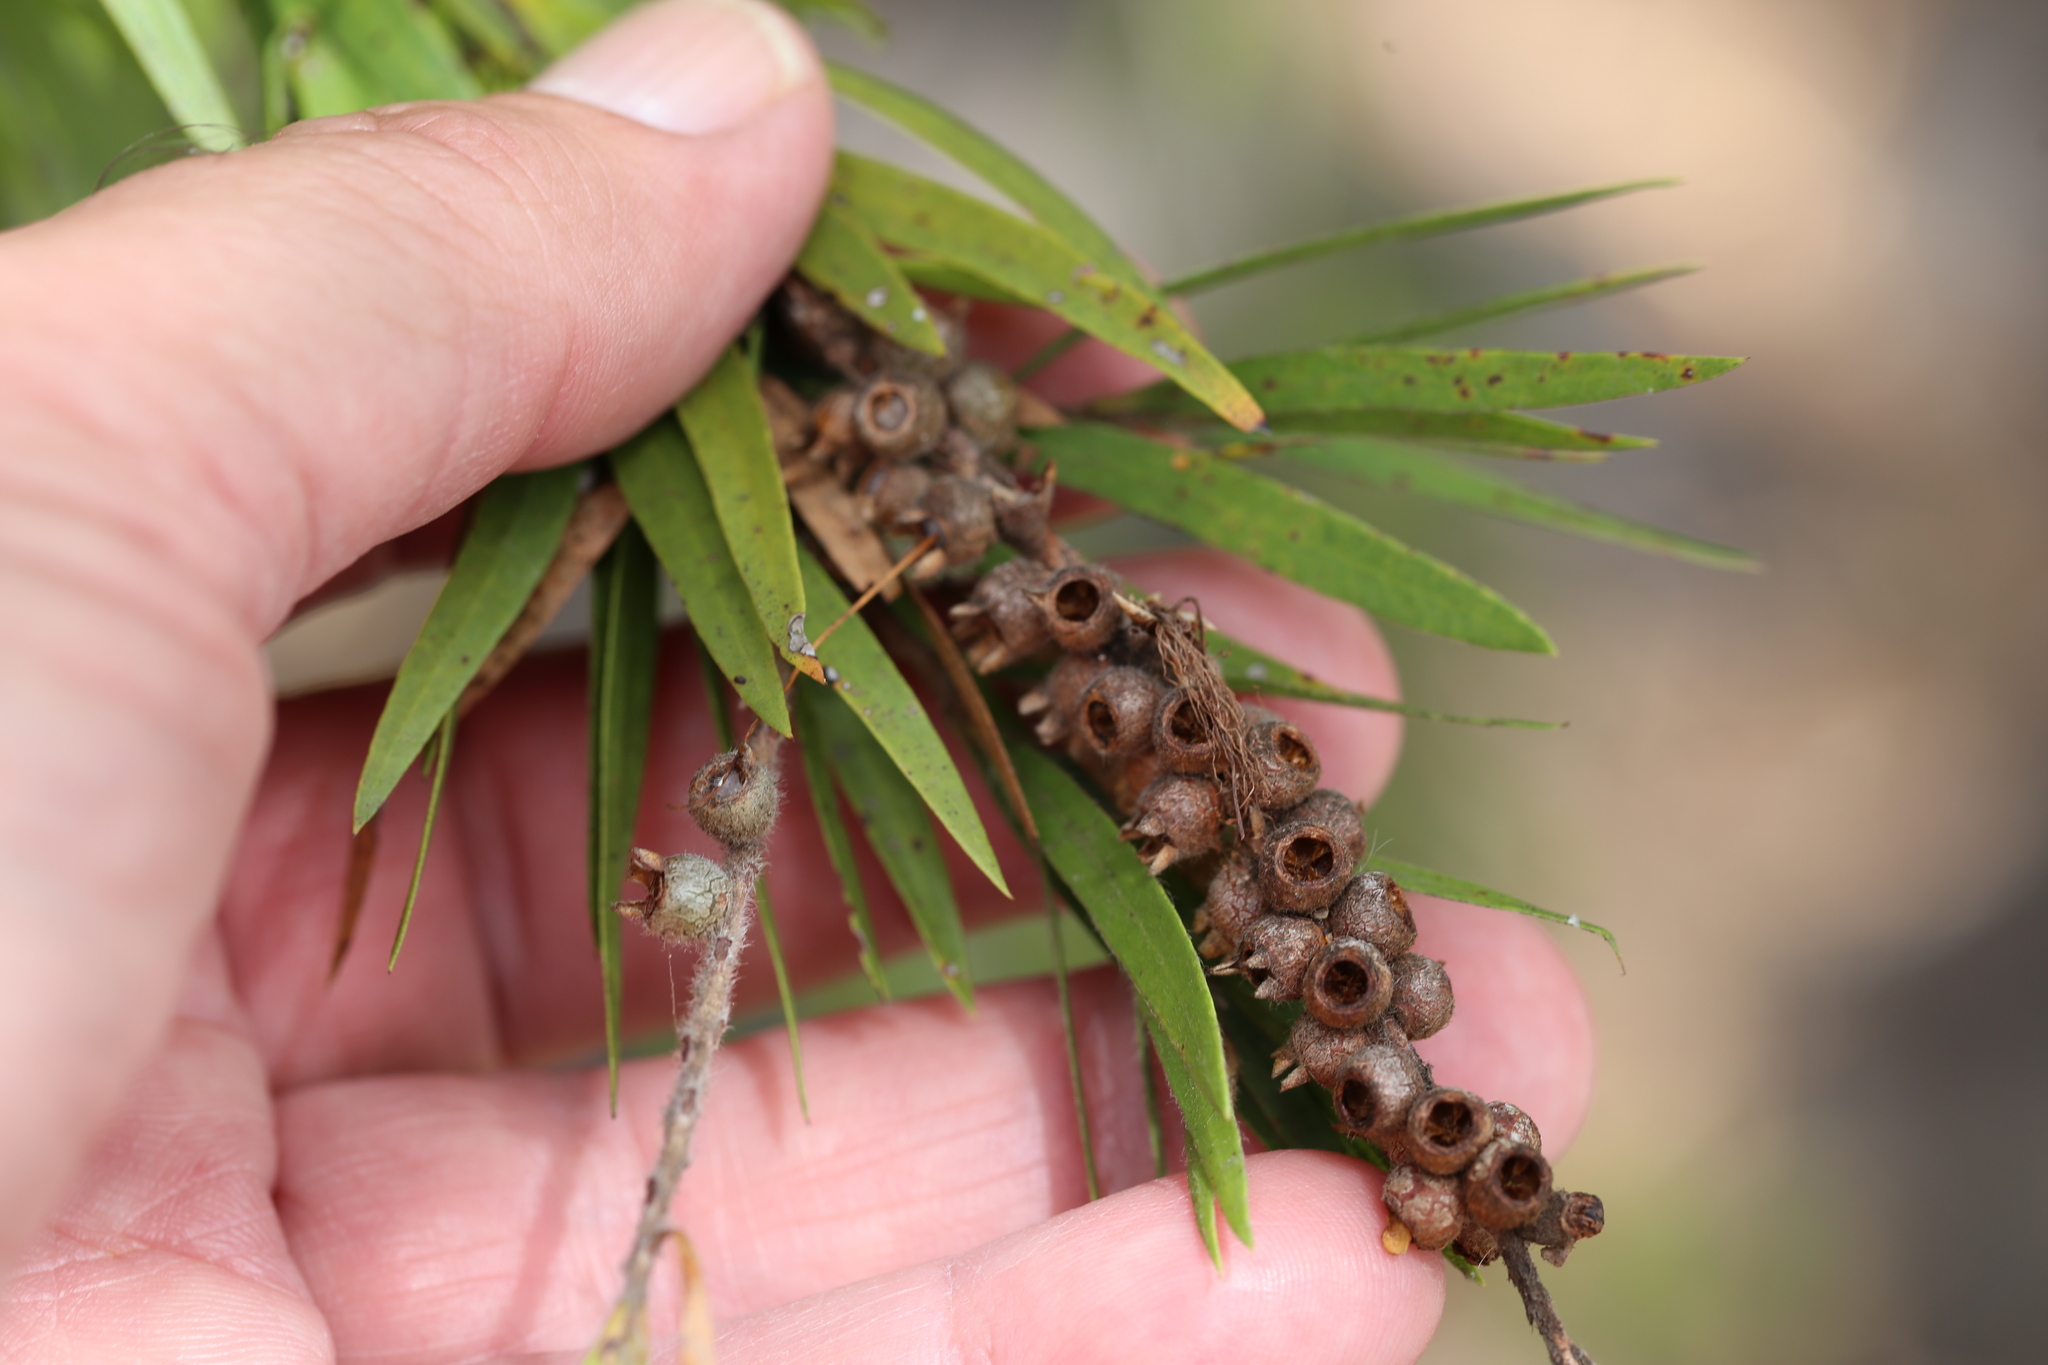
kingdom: Plantae
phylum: Tracheophyta
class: Magnoliopsida
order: Myrtales
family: Myrtaceae
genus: Callistemon
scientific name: Callistemon viminalis
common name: Drooping bottlebrush
